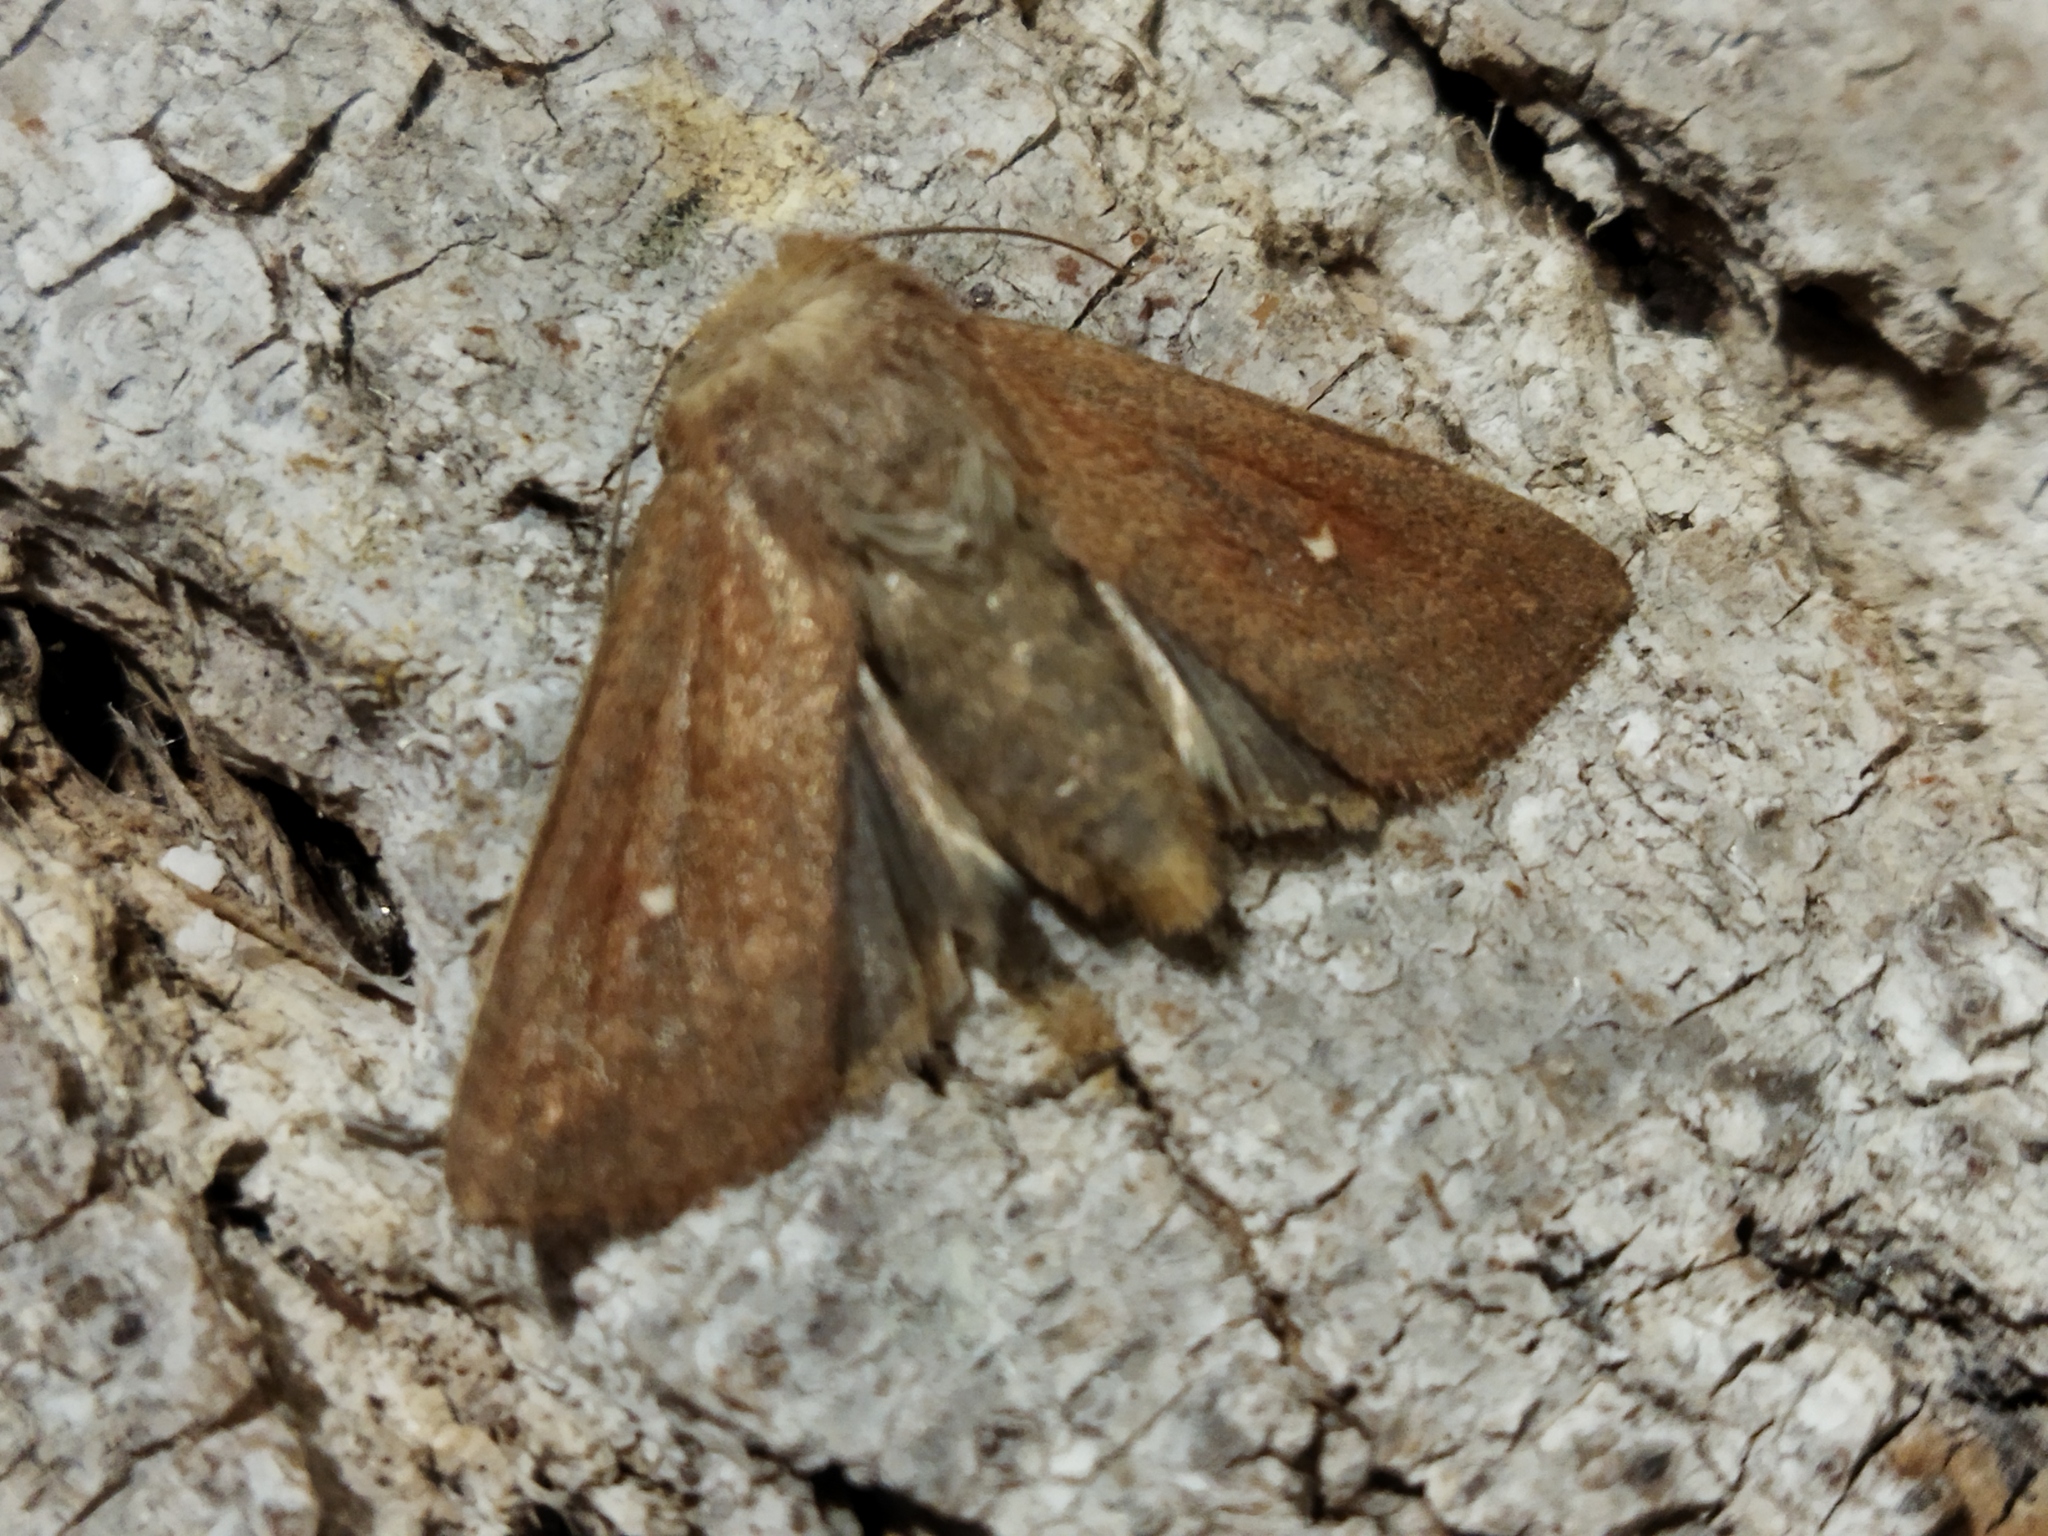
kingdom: Animalia
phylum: Arthropoda
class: Insecta
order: Lepidoptera
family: Noctuidae
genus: Mythimna
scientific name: Mythimna albipuncta
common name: White-point
